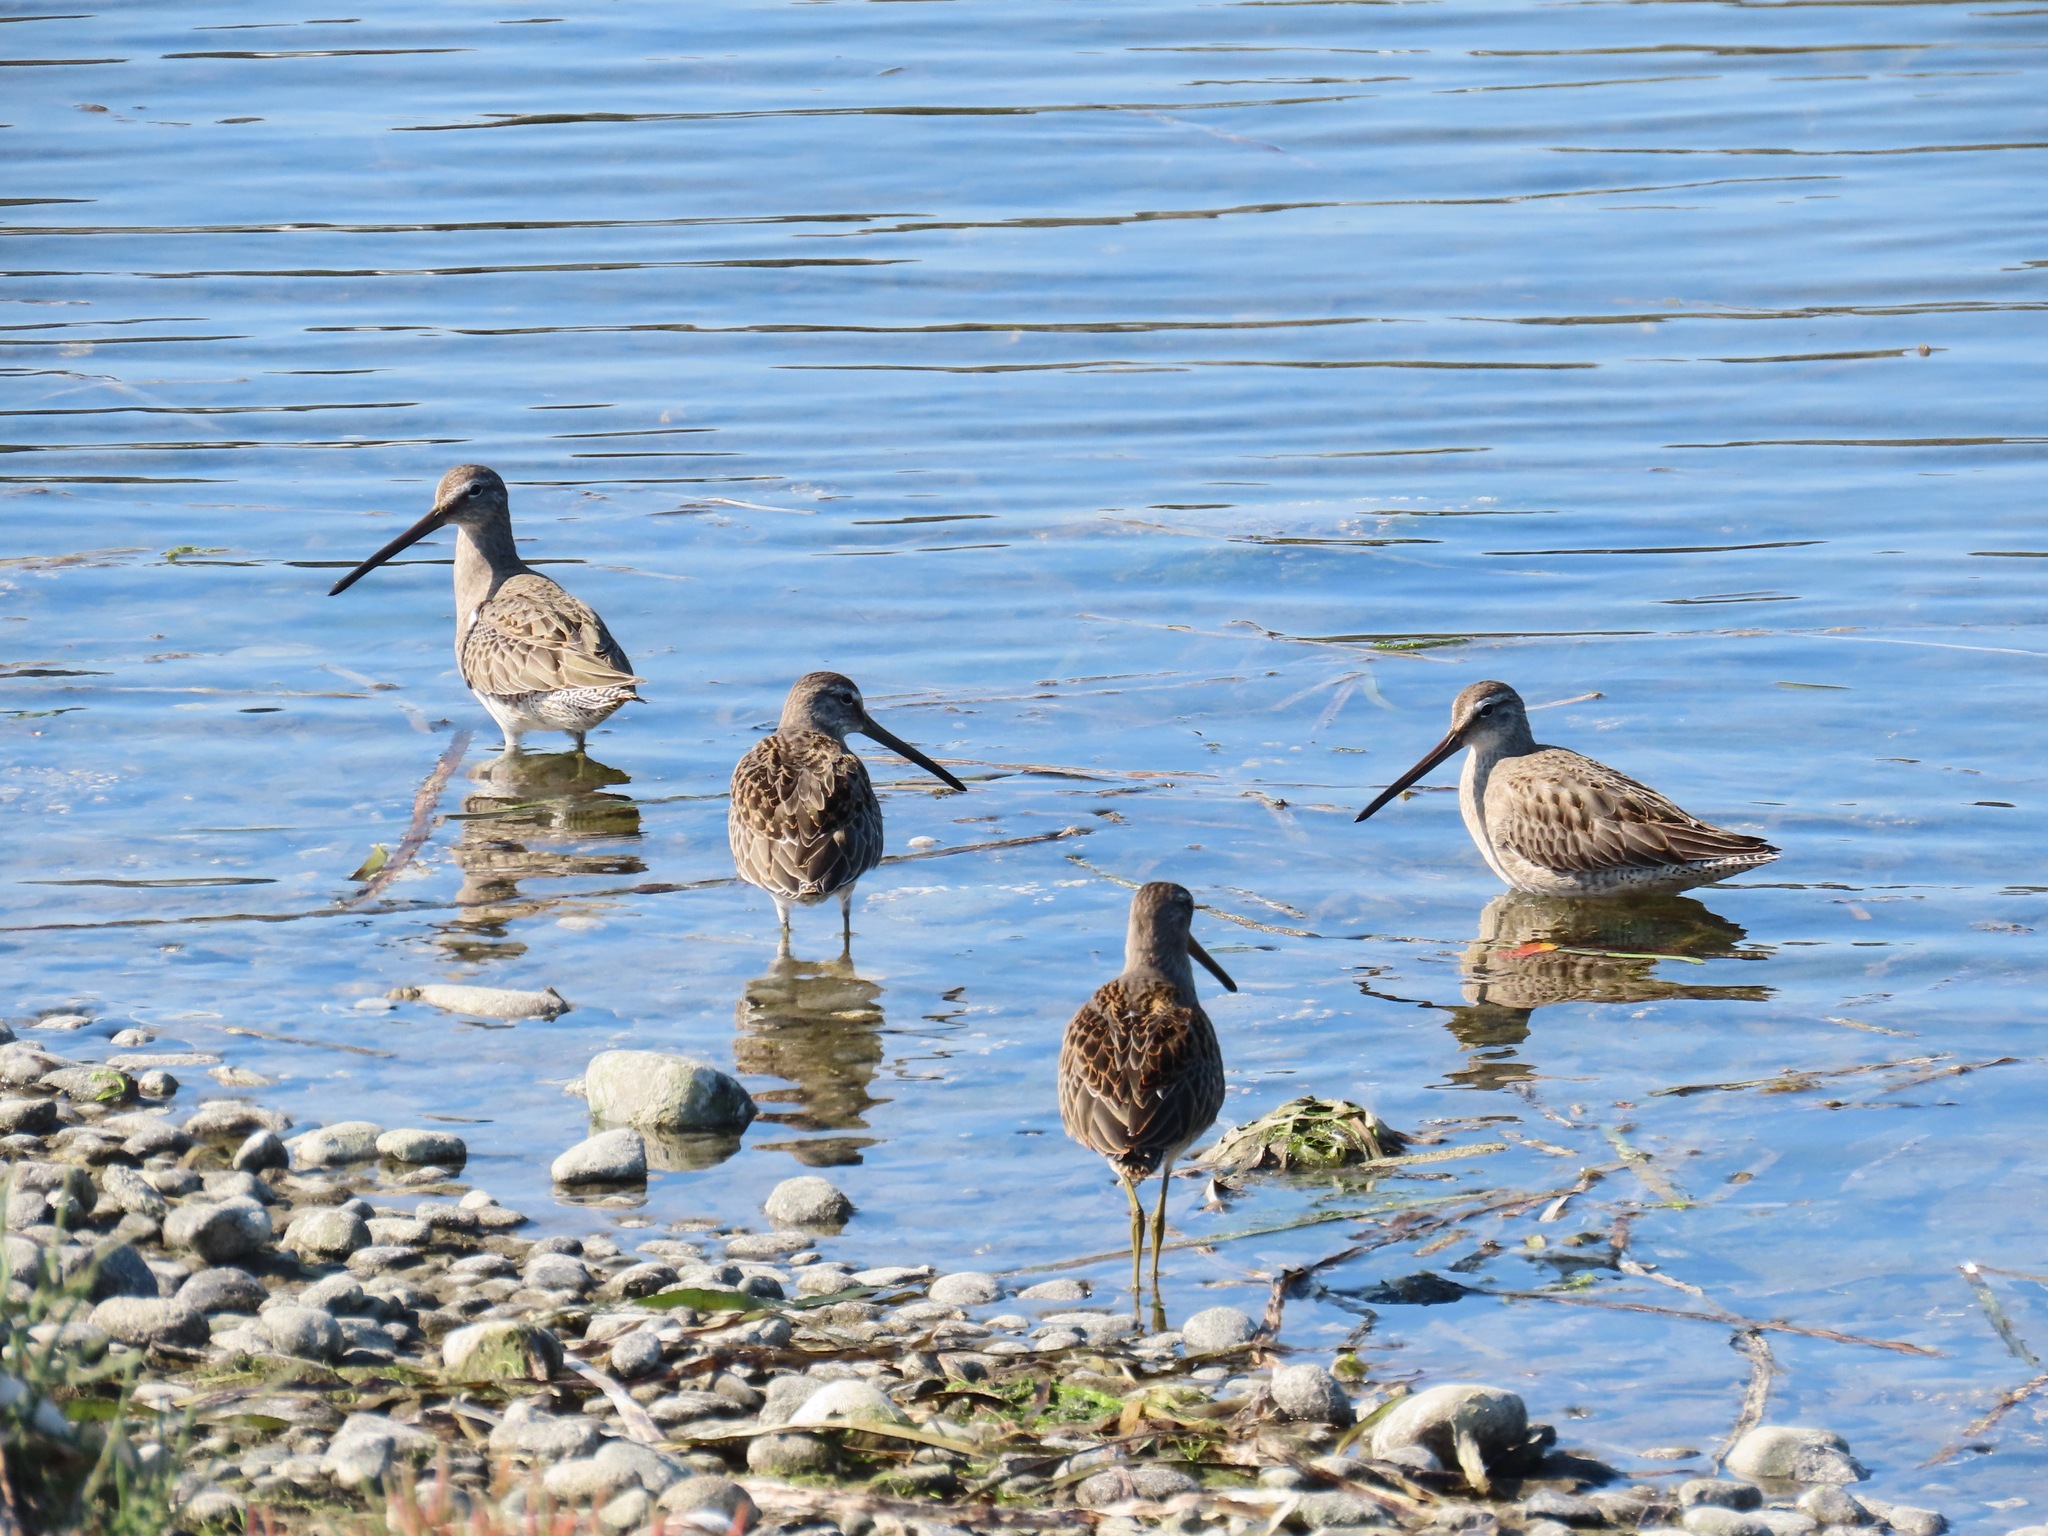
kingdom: Animalia
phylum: Chordata
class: Aves
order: Charadriiformes
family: Scolopacidae
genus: Limnodromus
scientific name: Limnodromus scolopaceus
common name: Long-billed dowitcher
